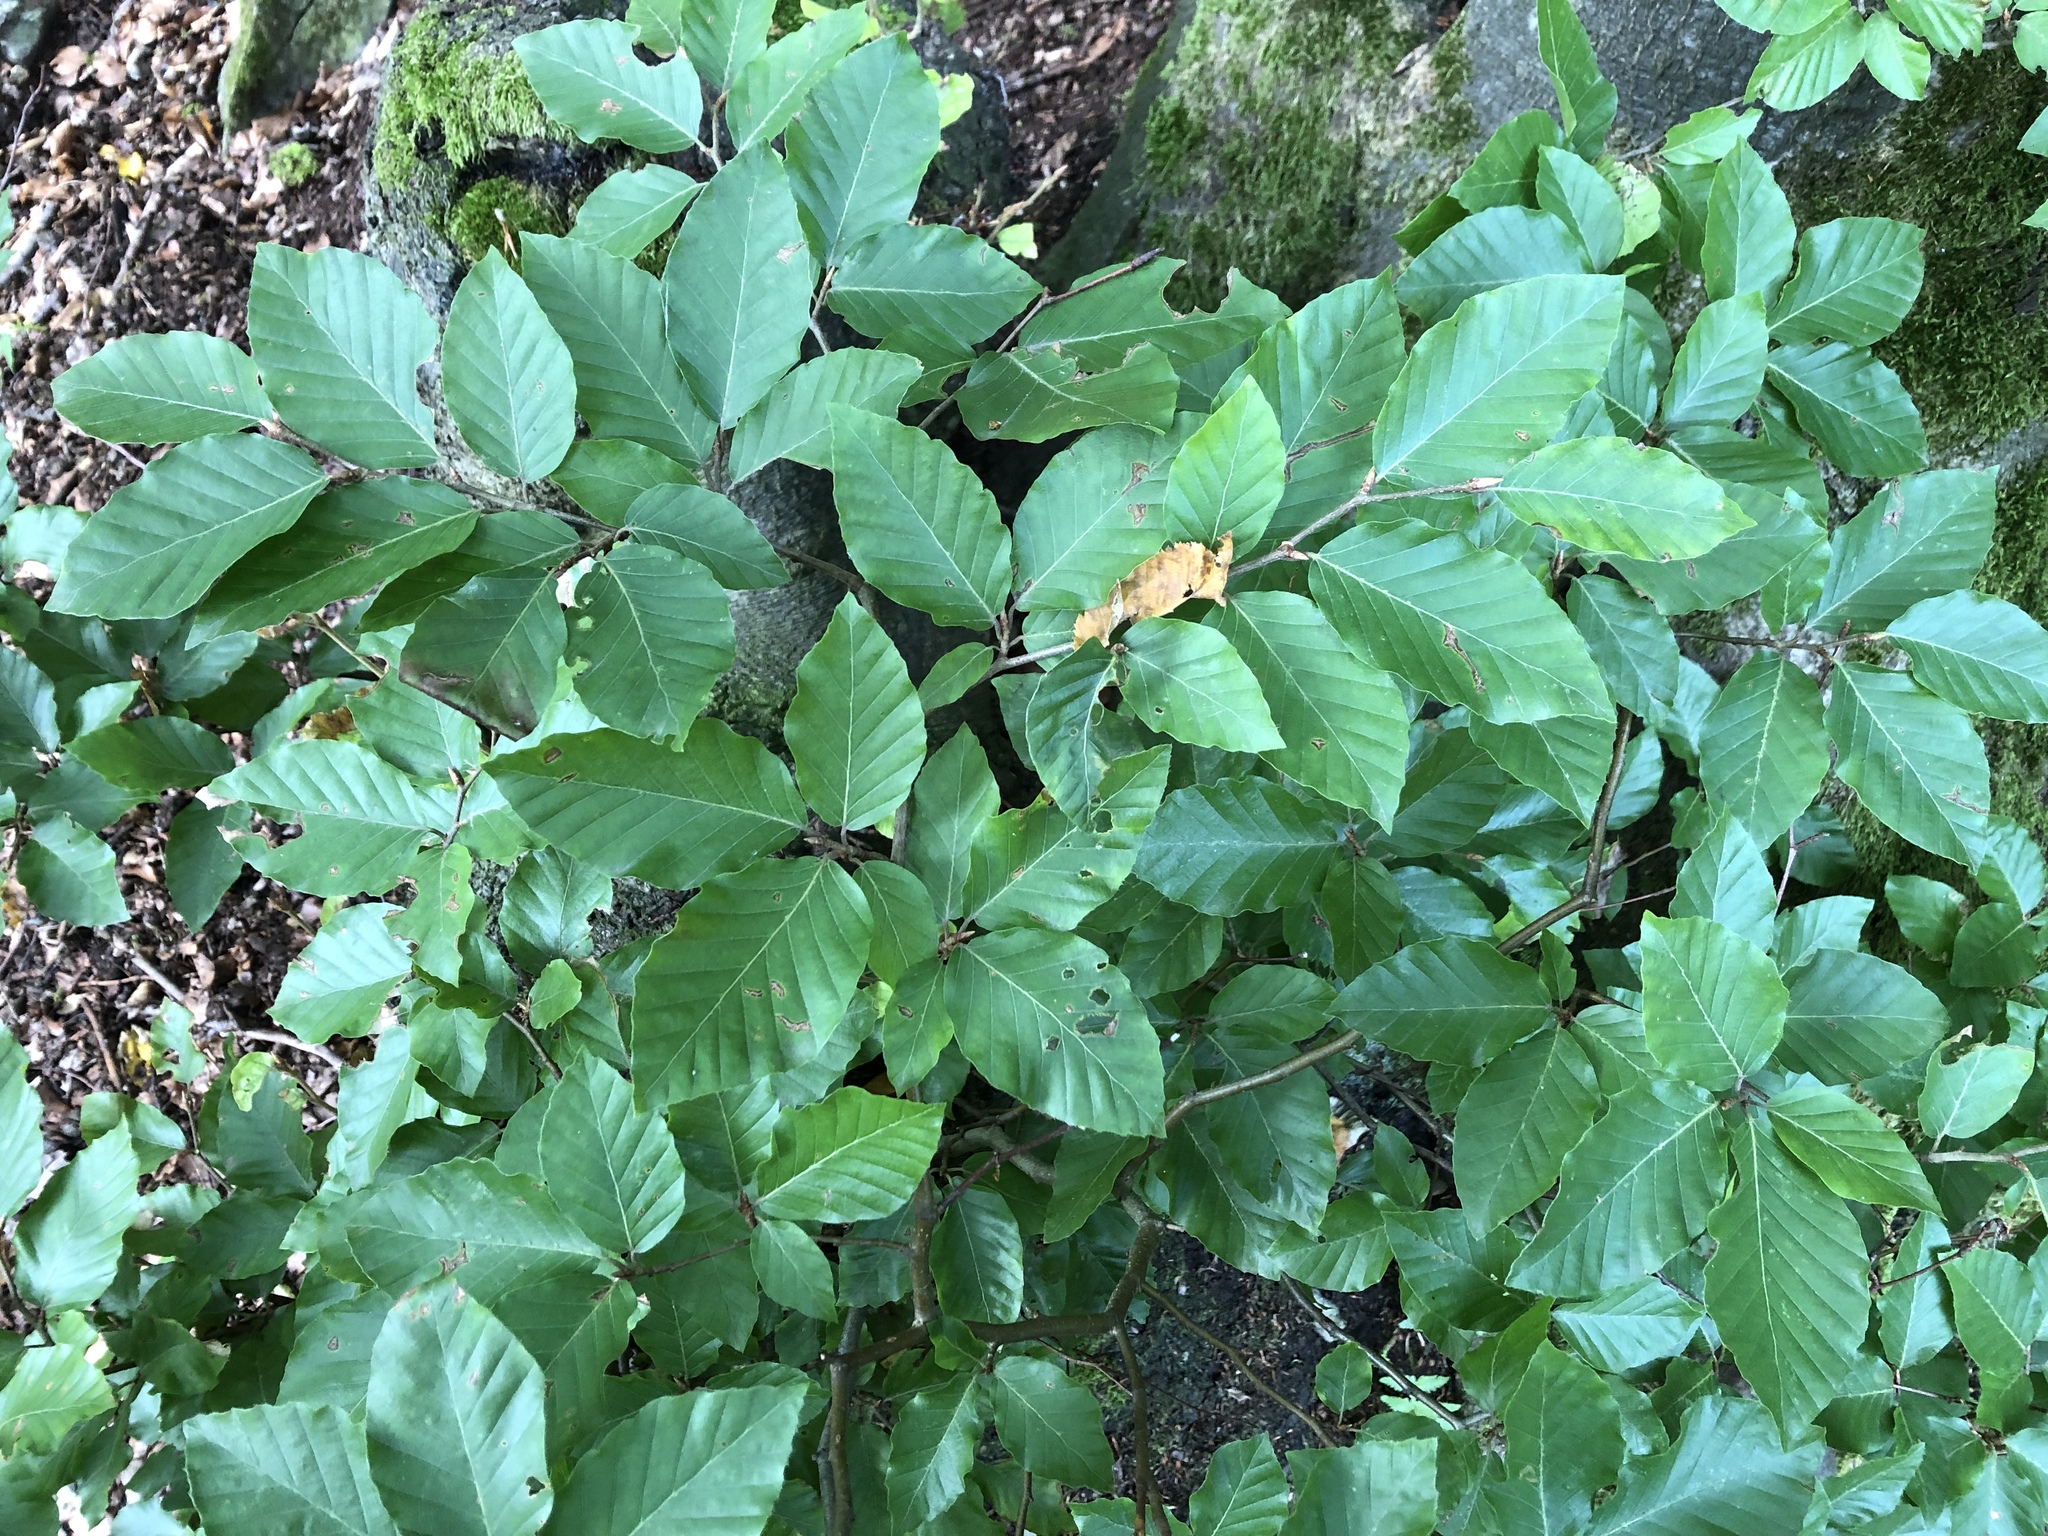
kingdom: Plantae
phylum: Tracheophyta
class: Magnoliopsida
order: Fagales
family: Fagaceae
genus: Fagus
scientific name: Fagus sylvatica
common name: Beech
